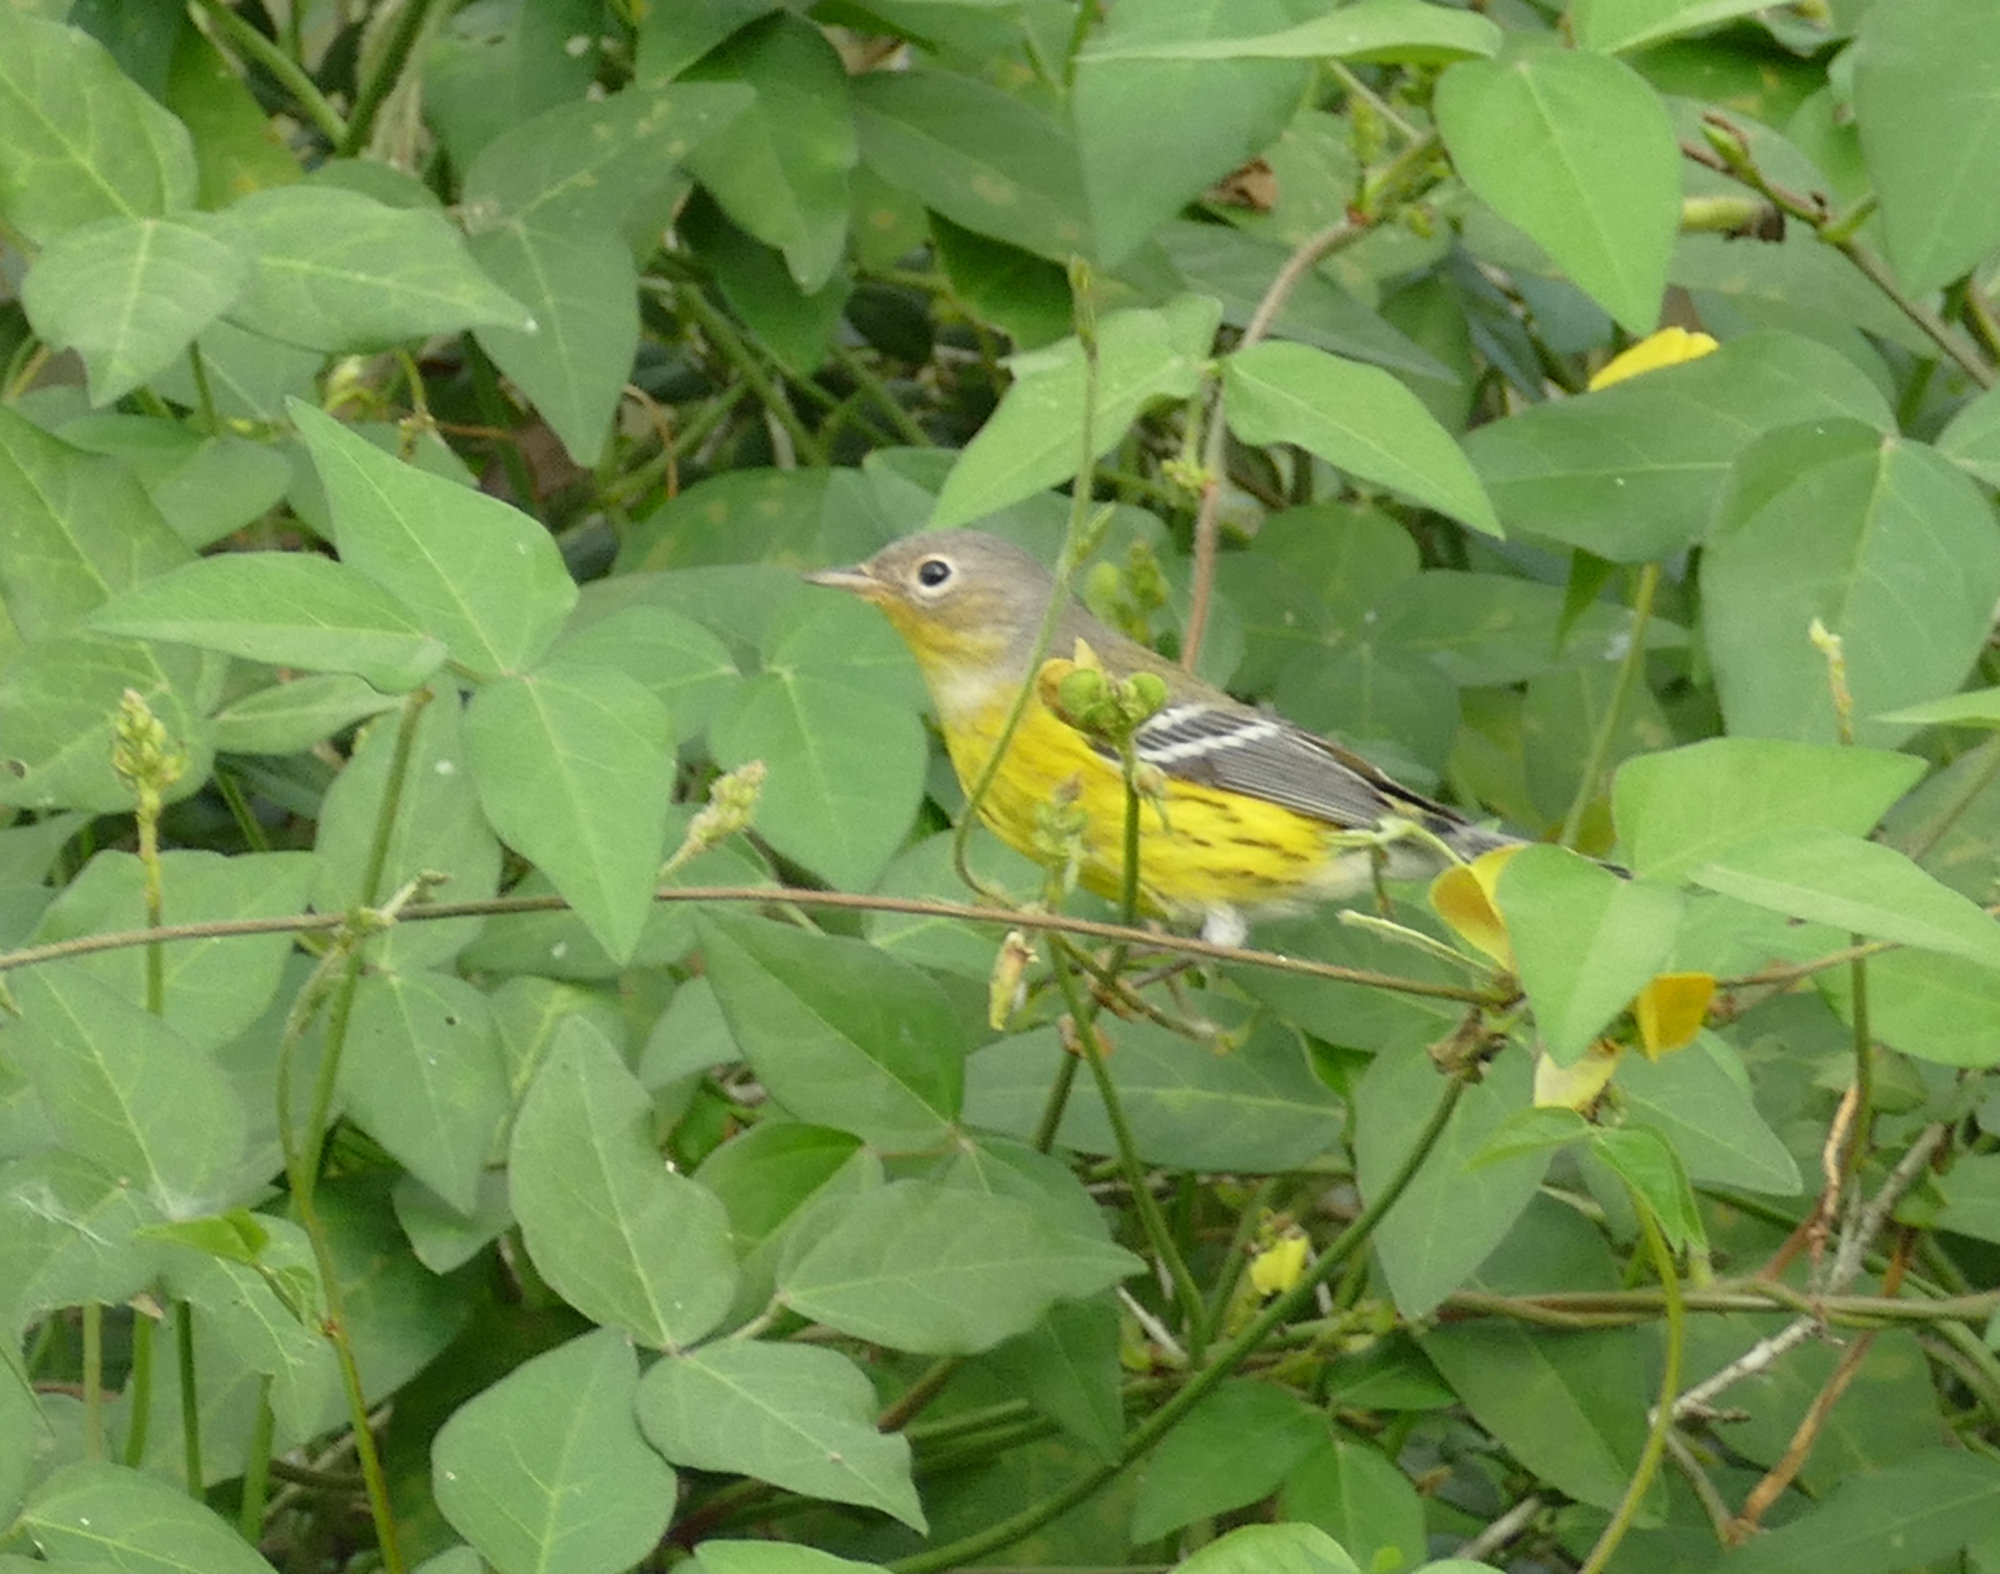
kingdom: Animalia
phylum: Chordata
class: Aves
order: Passeriformes
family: Parulidae
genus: Setophaga
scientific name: Setophaga magnolia
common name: Magnolia warbler
